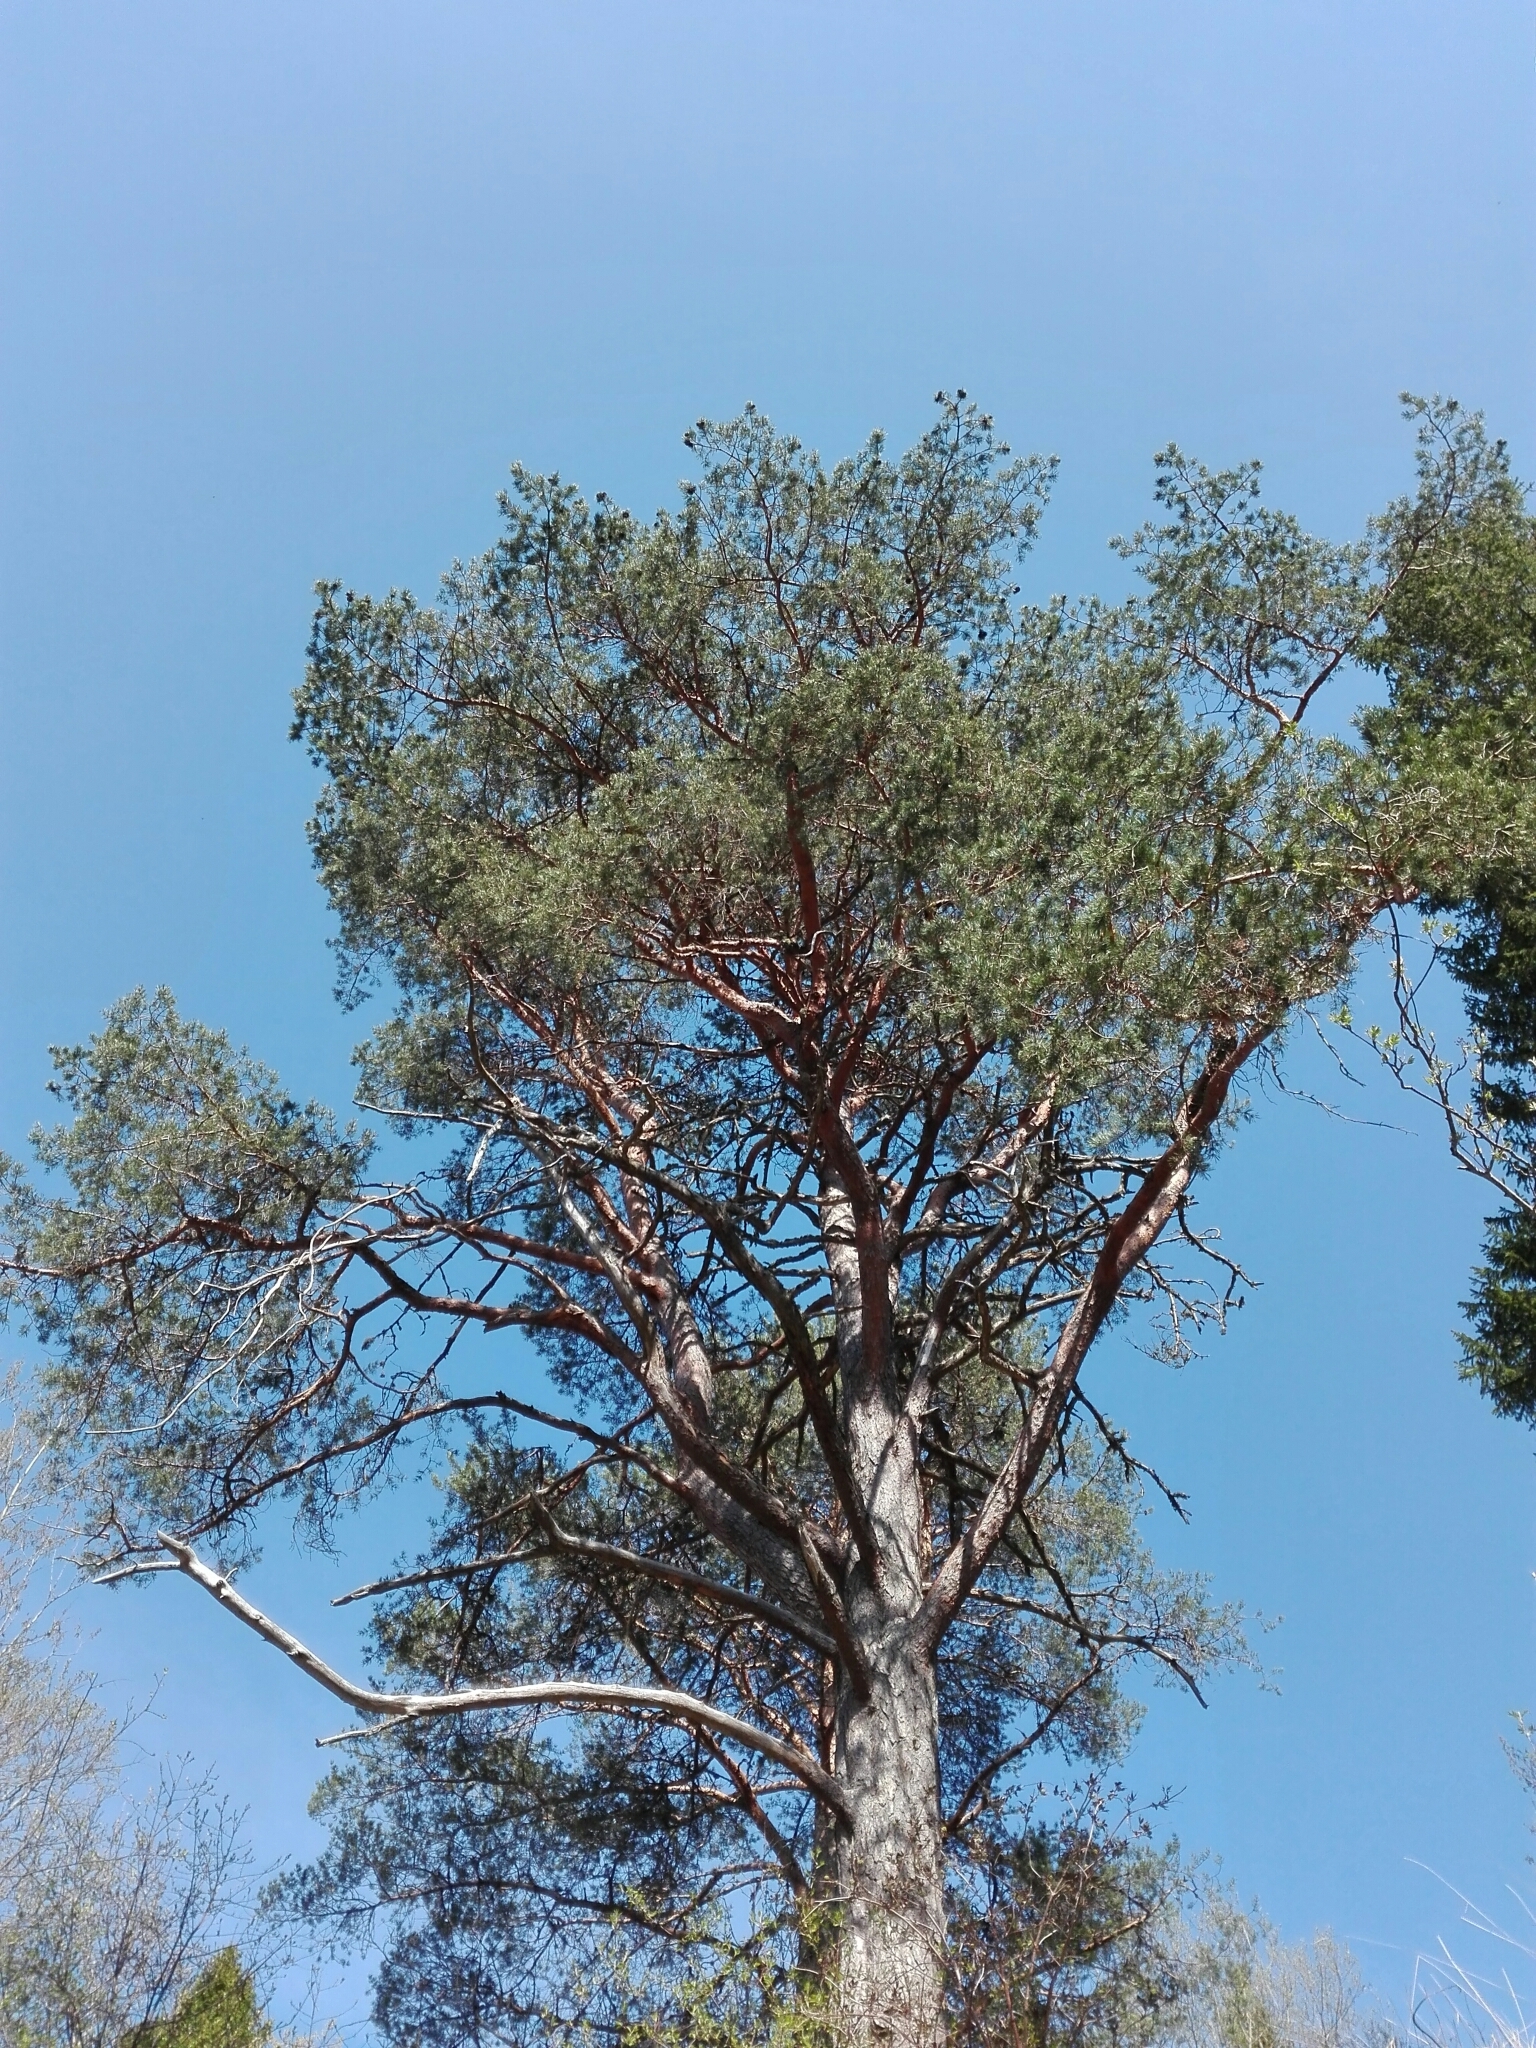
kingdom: Plantae
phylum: Tracheophyta
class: Pinopsida
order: Pinales
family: Pinaceae
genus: Pinus
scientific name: Pinus sylvestris
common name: Scots pine
